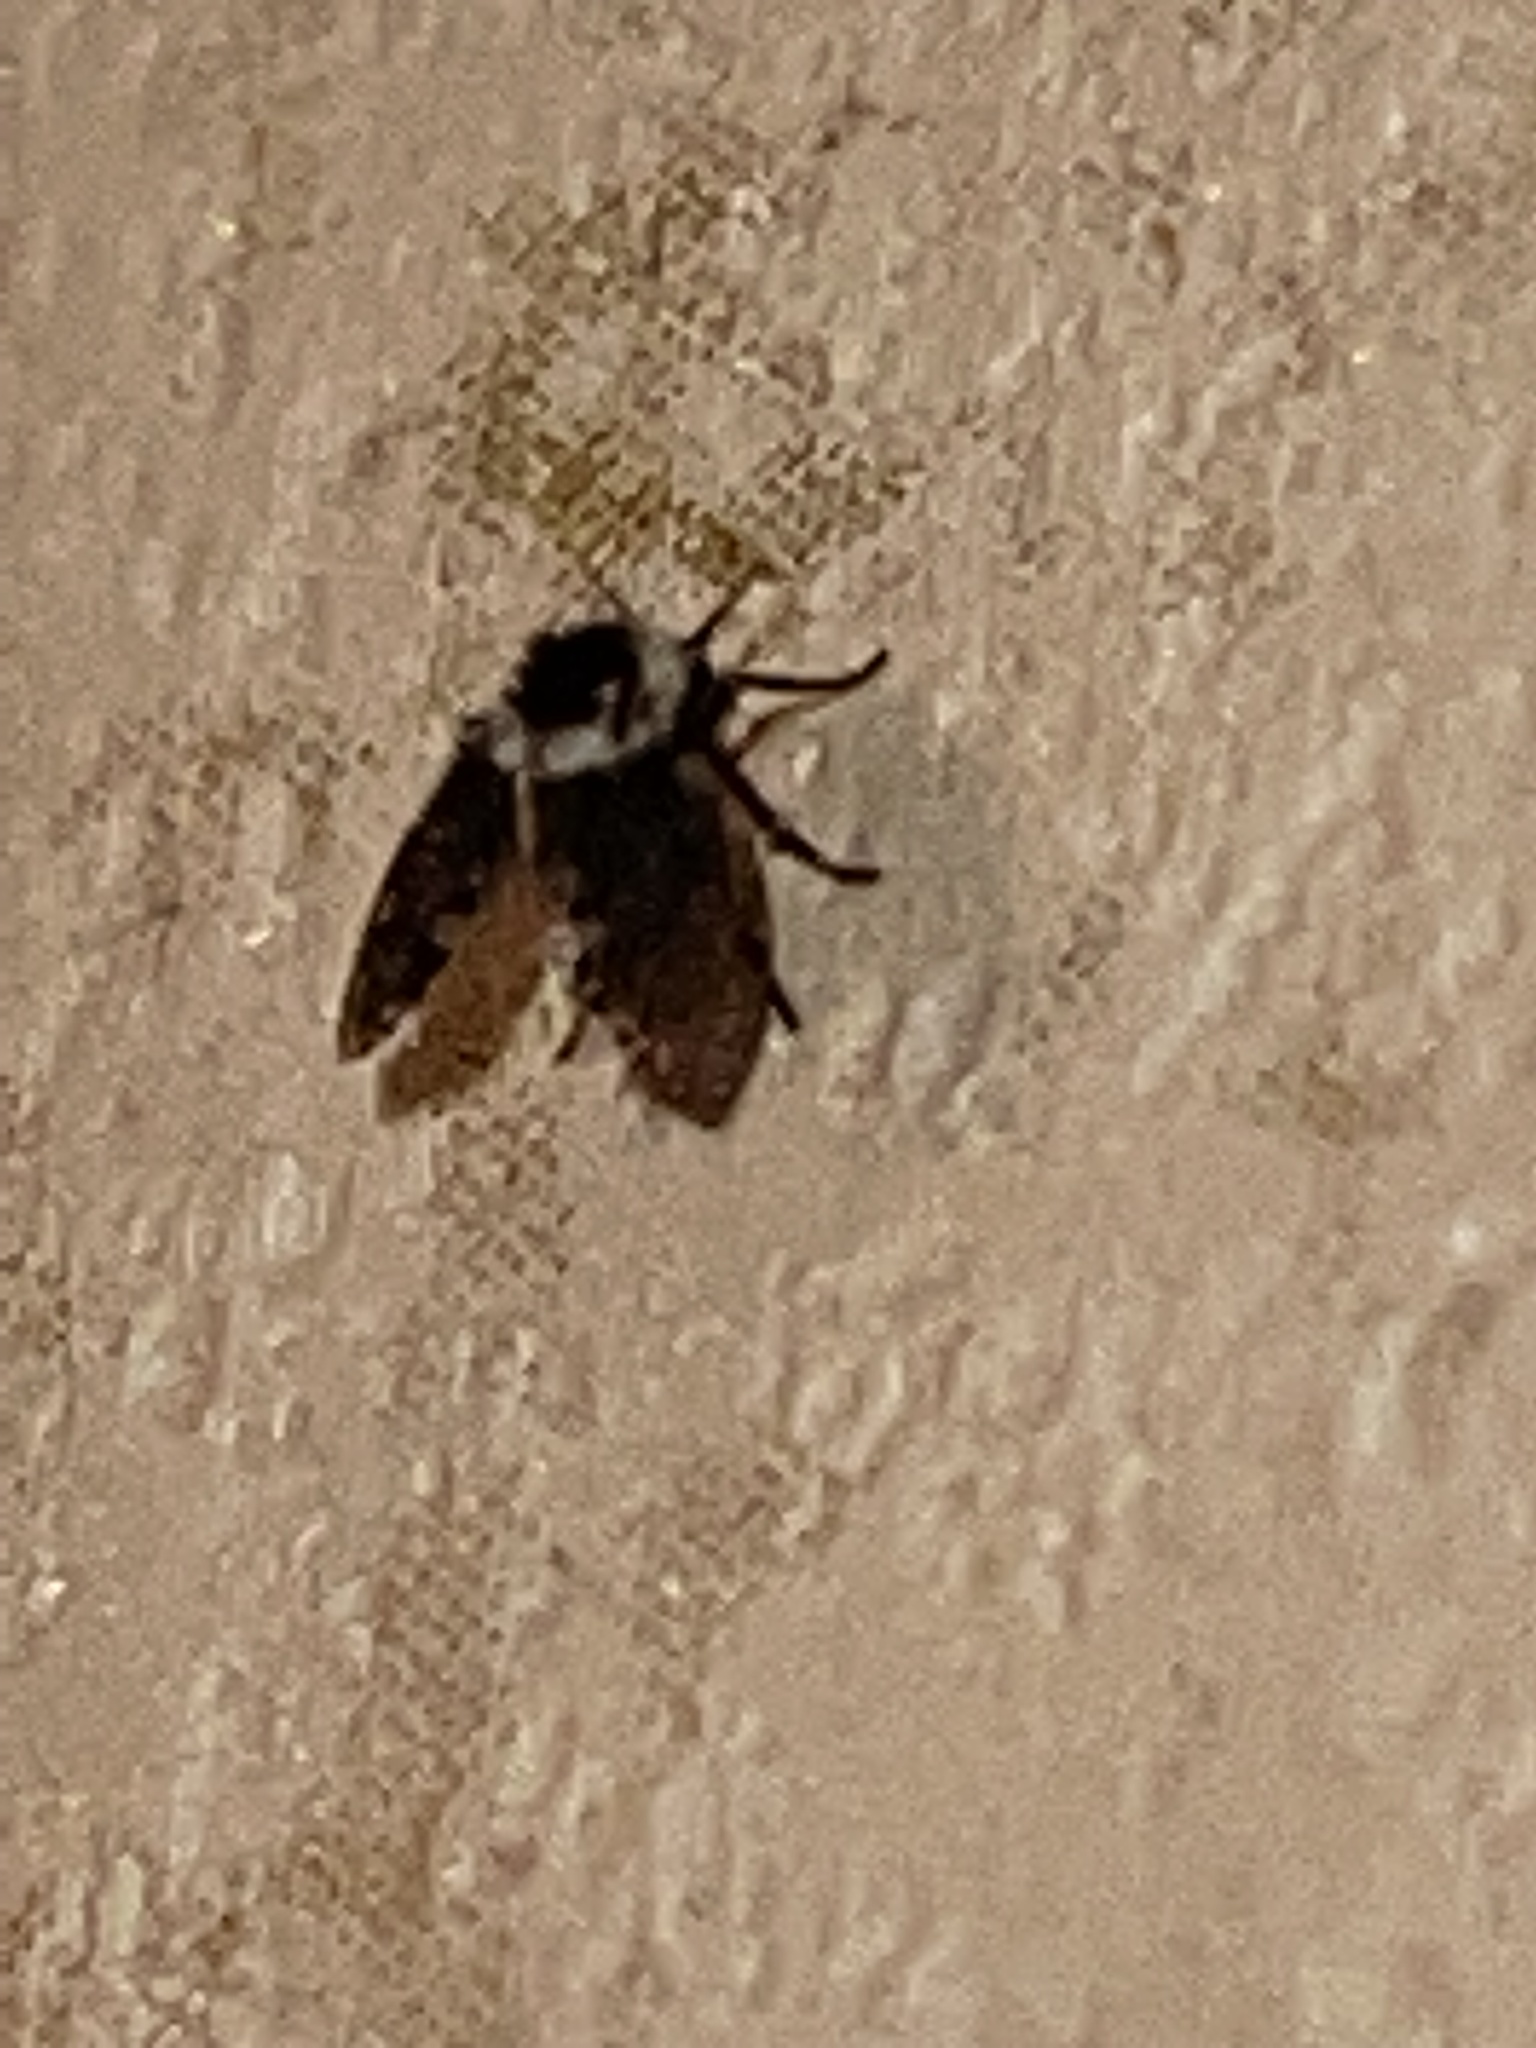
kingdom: Animalia
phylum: Arthropoda
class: Insecta
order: Diptera
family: Psychodidae
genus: Lepiseodina
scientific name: Lepiseodina
